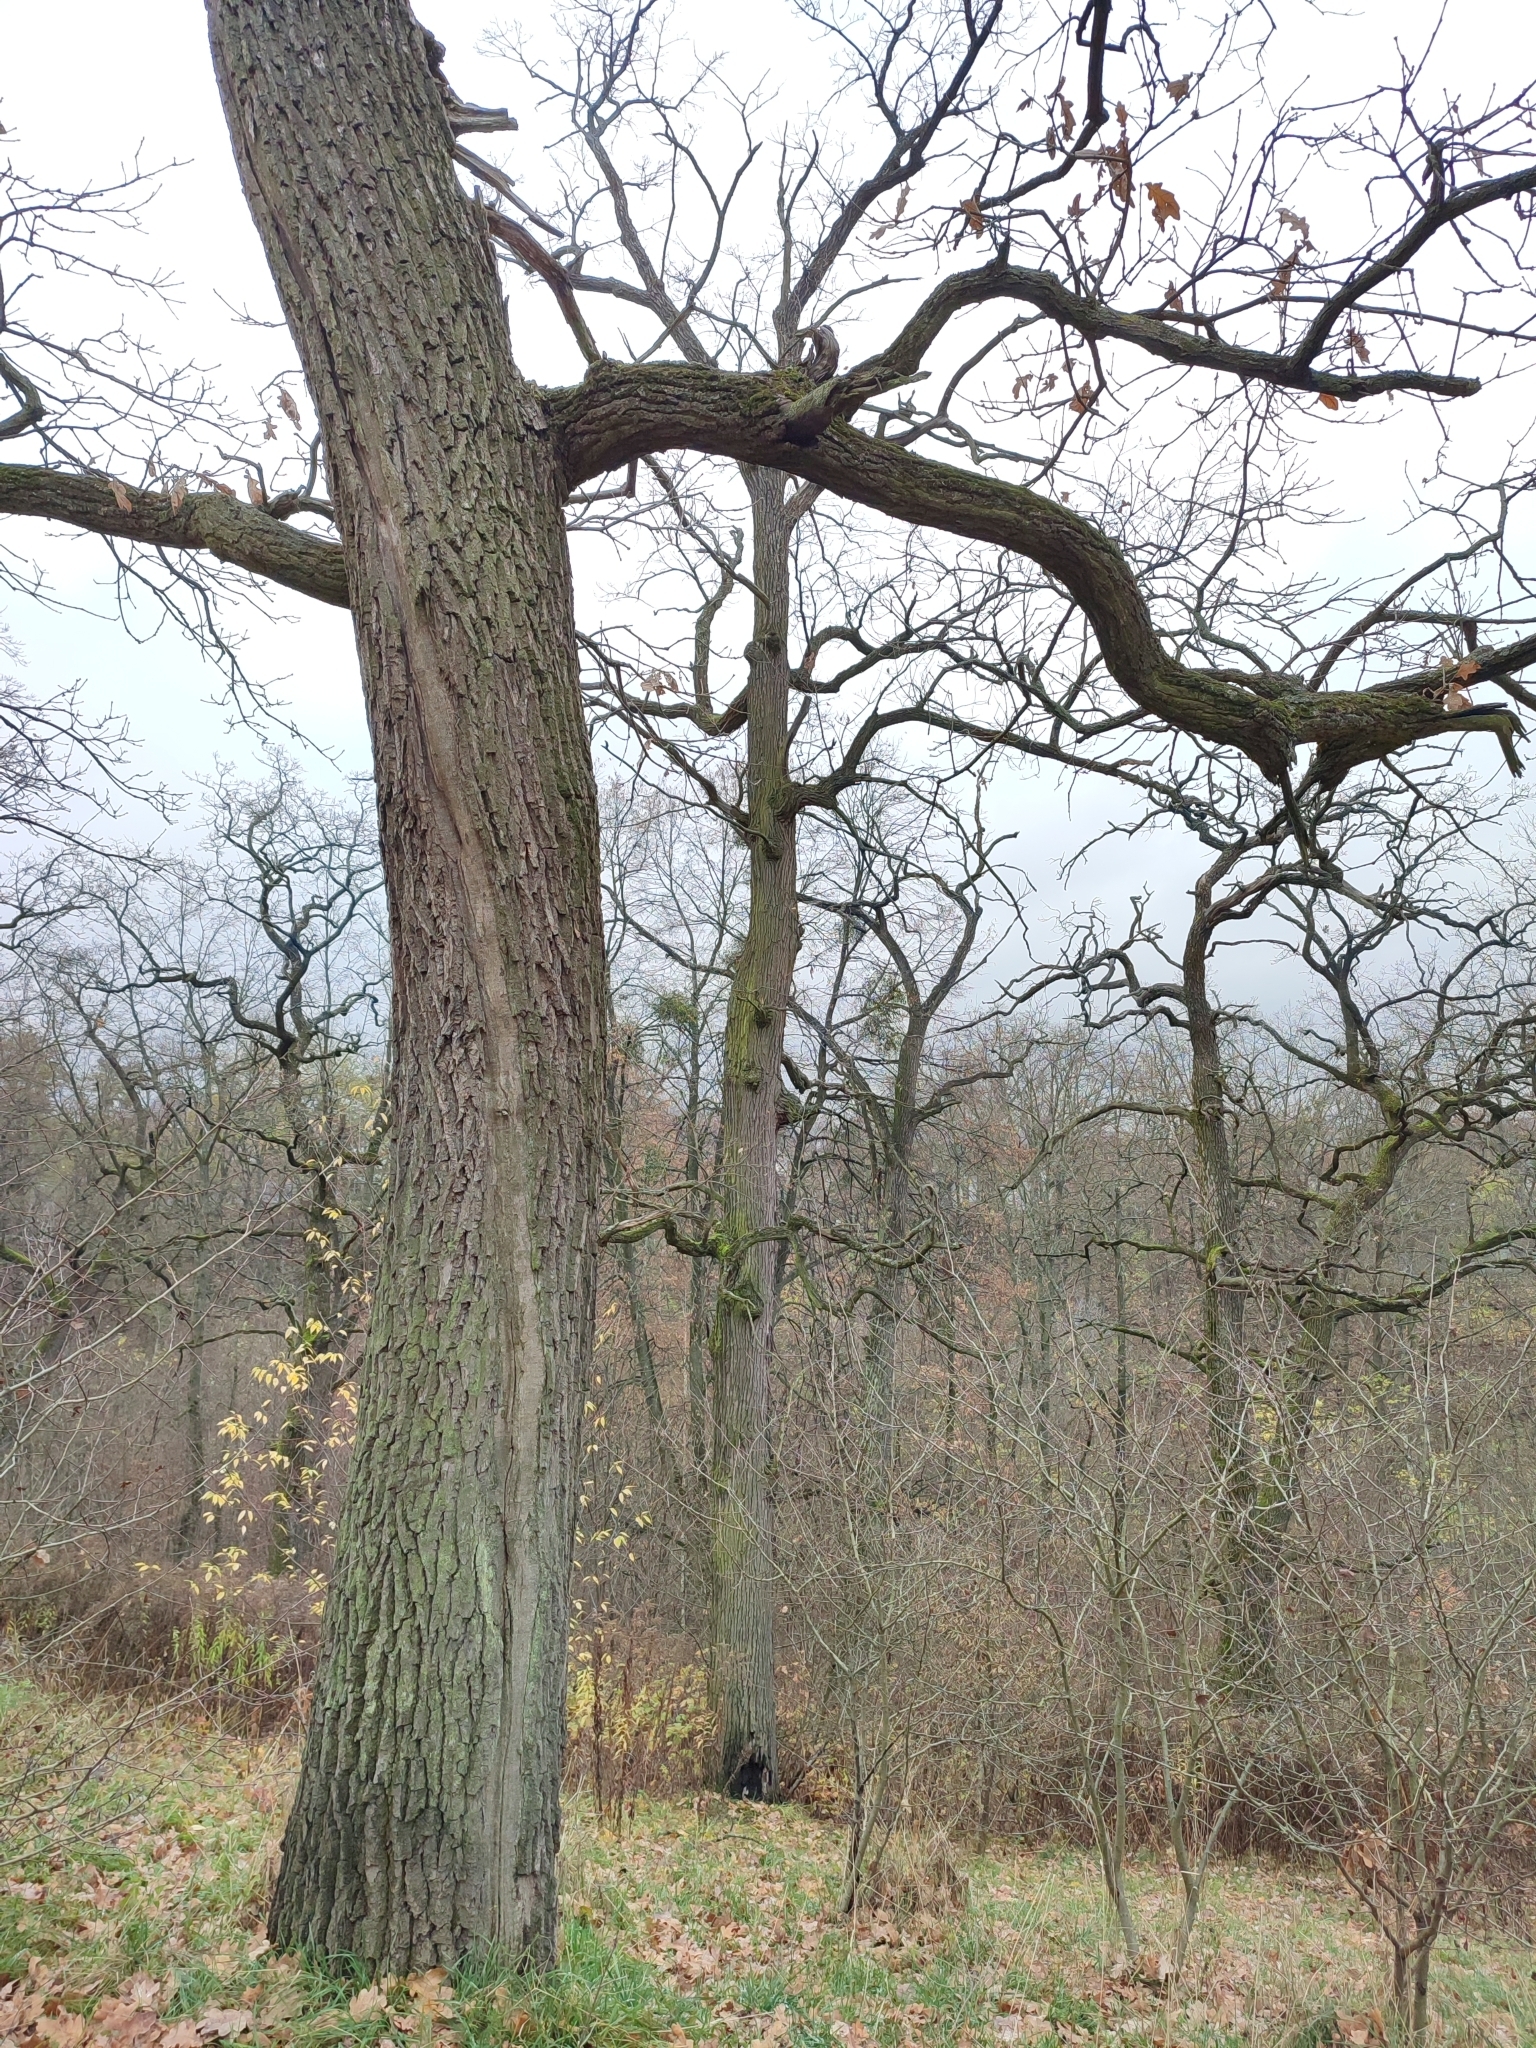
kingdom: Plantae
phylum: Tracheophyta
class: Magnoliopsida
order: Fagales
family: Fagaceae
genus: Quercus
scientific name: Quercus robur
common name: Pedunculate oak
